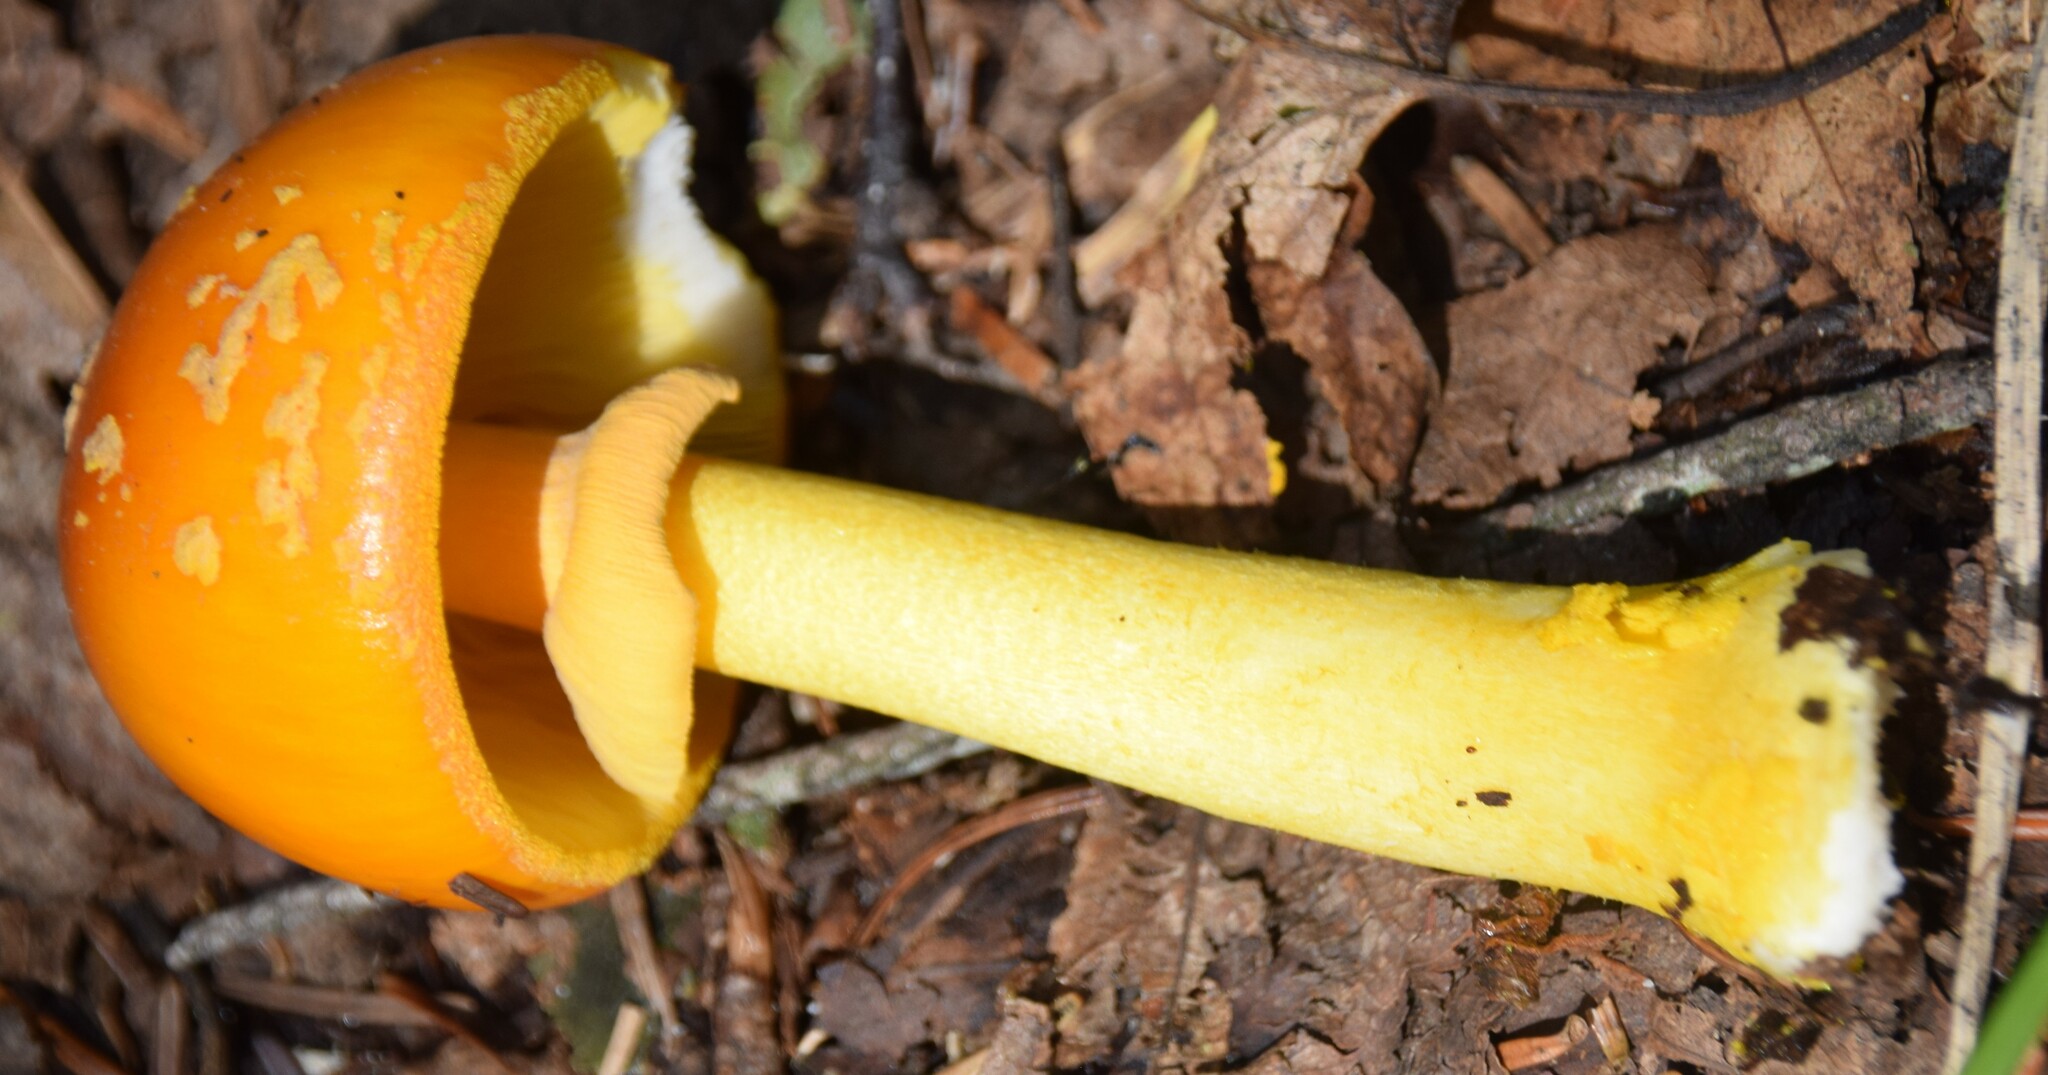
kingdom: Fungi
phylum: Basidiomycota
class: Agaricomycetes
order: Agaricales
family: Amanitaceae
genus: Amanita
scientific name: Amanita flavoconia
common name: Yellow patches
